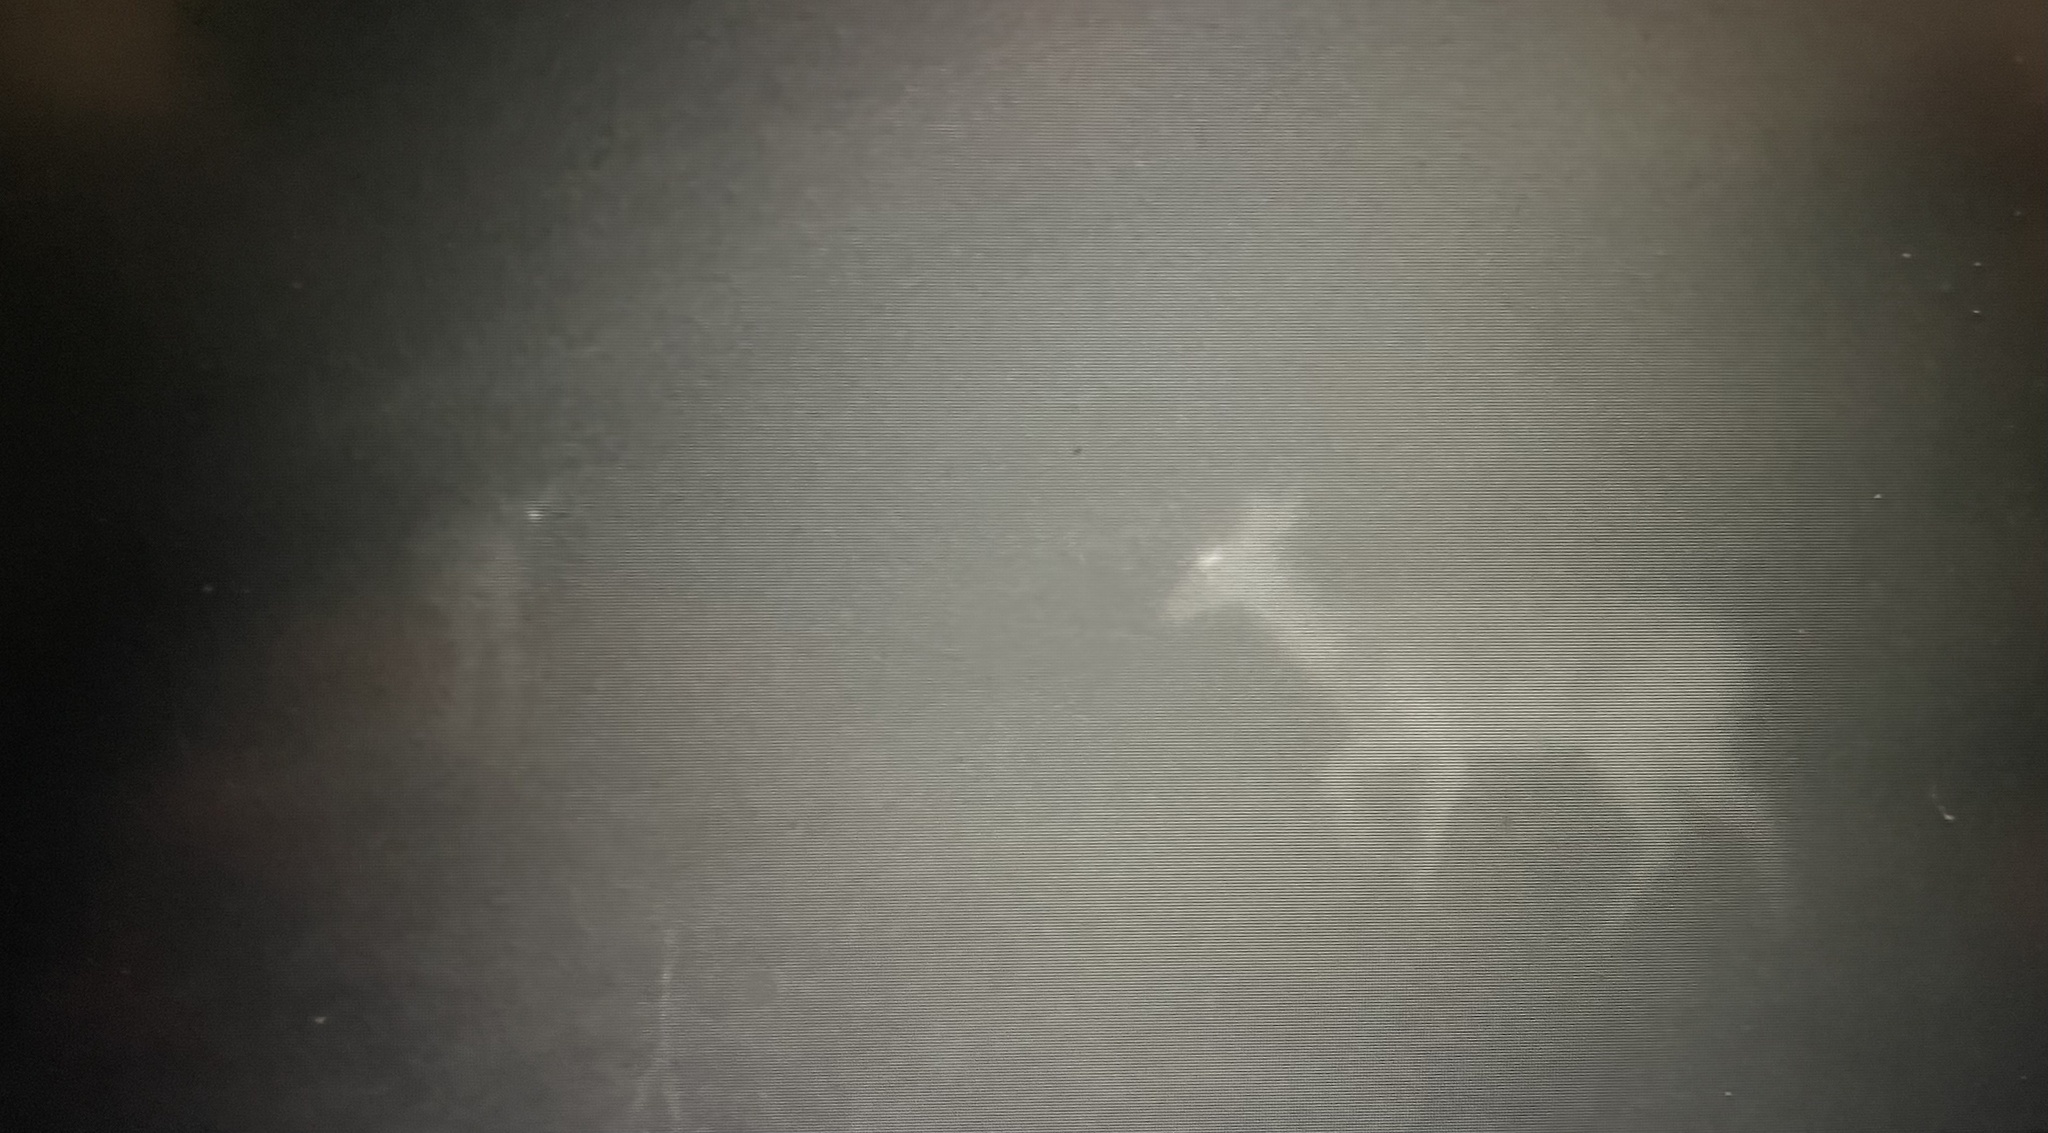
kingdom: Animalia
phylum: Chordata
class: Mammalia
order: Artiodactyla
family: Cervidae
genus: Odocoileus
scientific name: Odocoileus virginianus
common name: White-tailed deer
